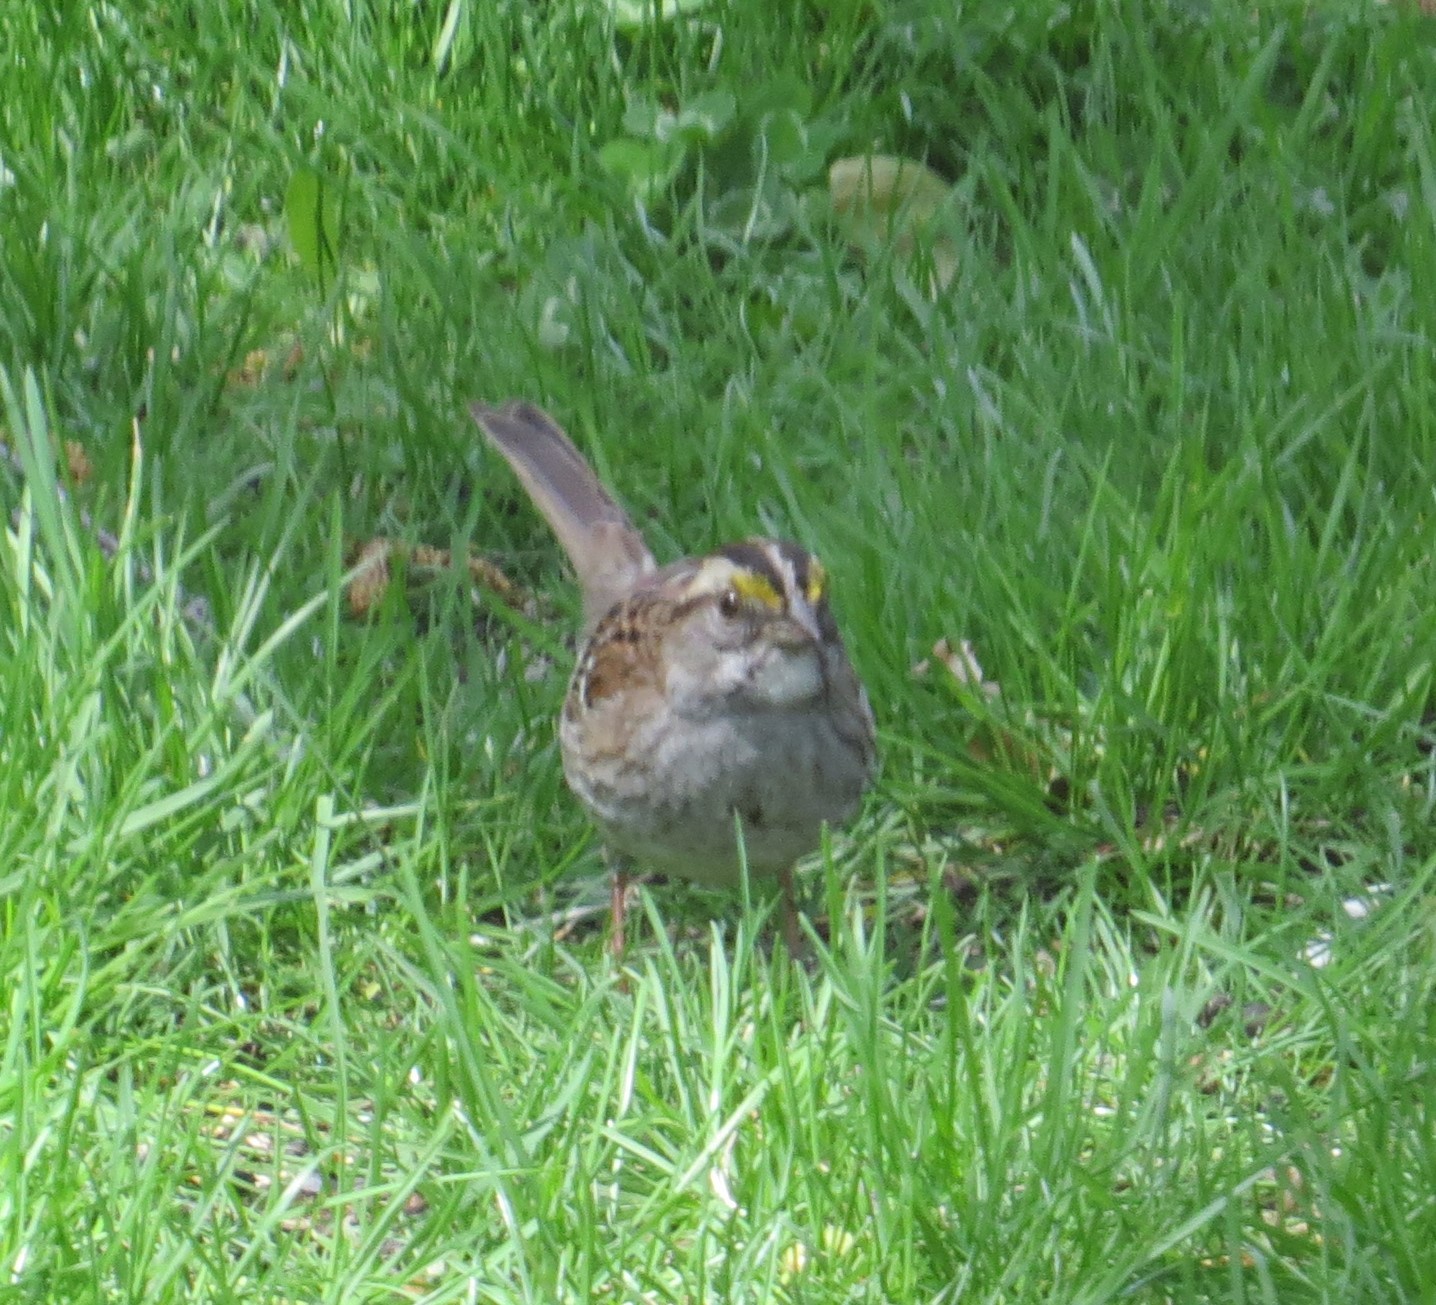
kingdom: Animalia
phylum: Chordata
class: Aves
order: Passeriformes
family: Passerellidae
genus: Zonotrichia
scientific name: Zonotrichia albicollis
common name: White-throated sparrow
